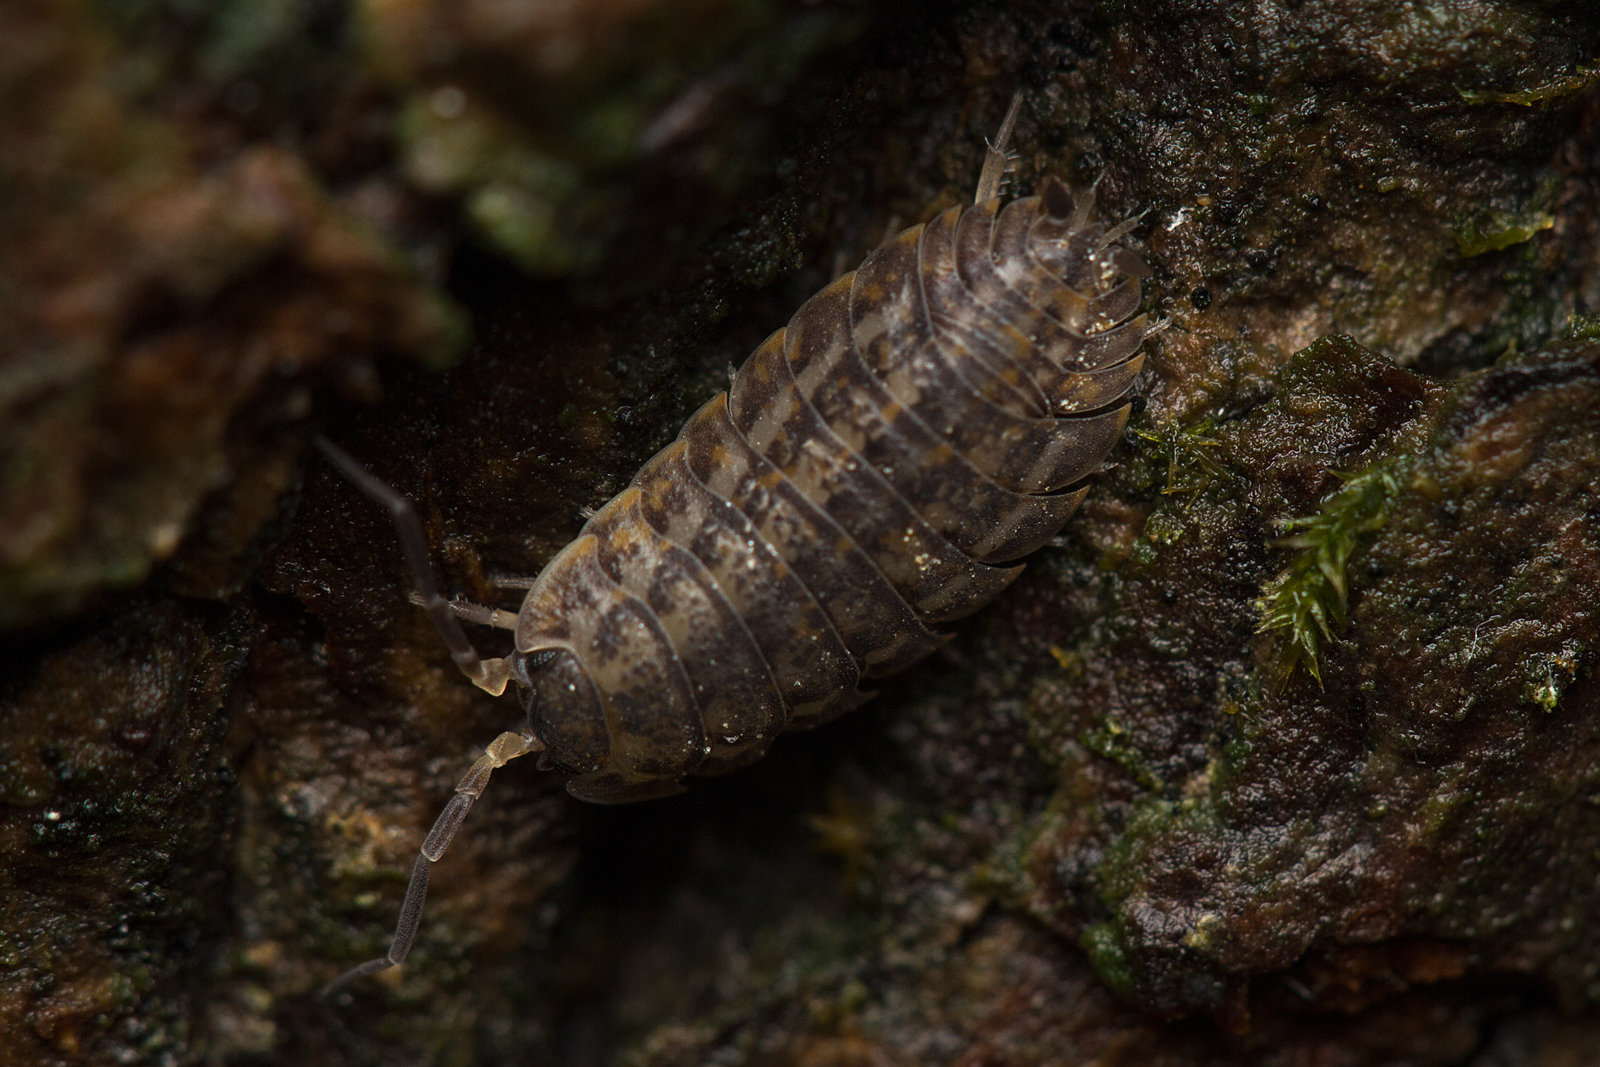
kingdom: Animalia
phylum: Arthropoda
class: Malacostraca
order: Isopoda
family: Trachelipodidae
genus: Trachelipus
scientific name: Trachelipus rathkii
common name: Isopod
